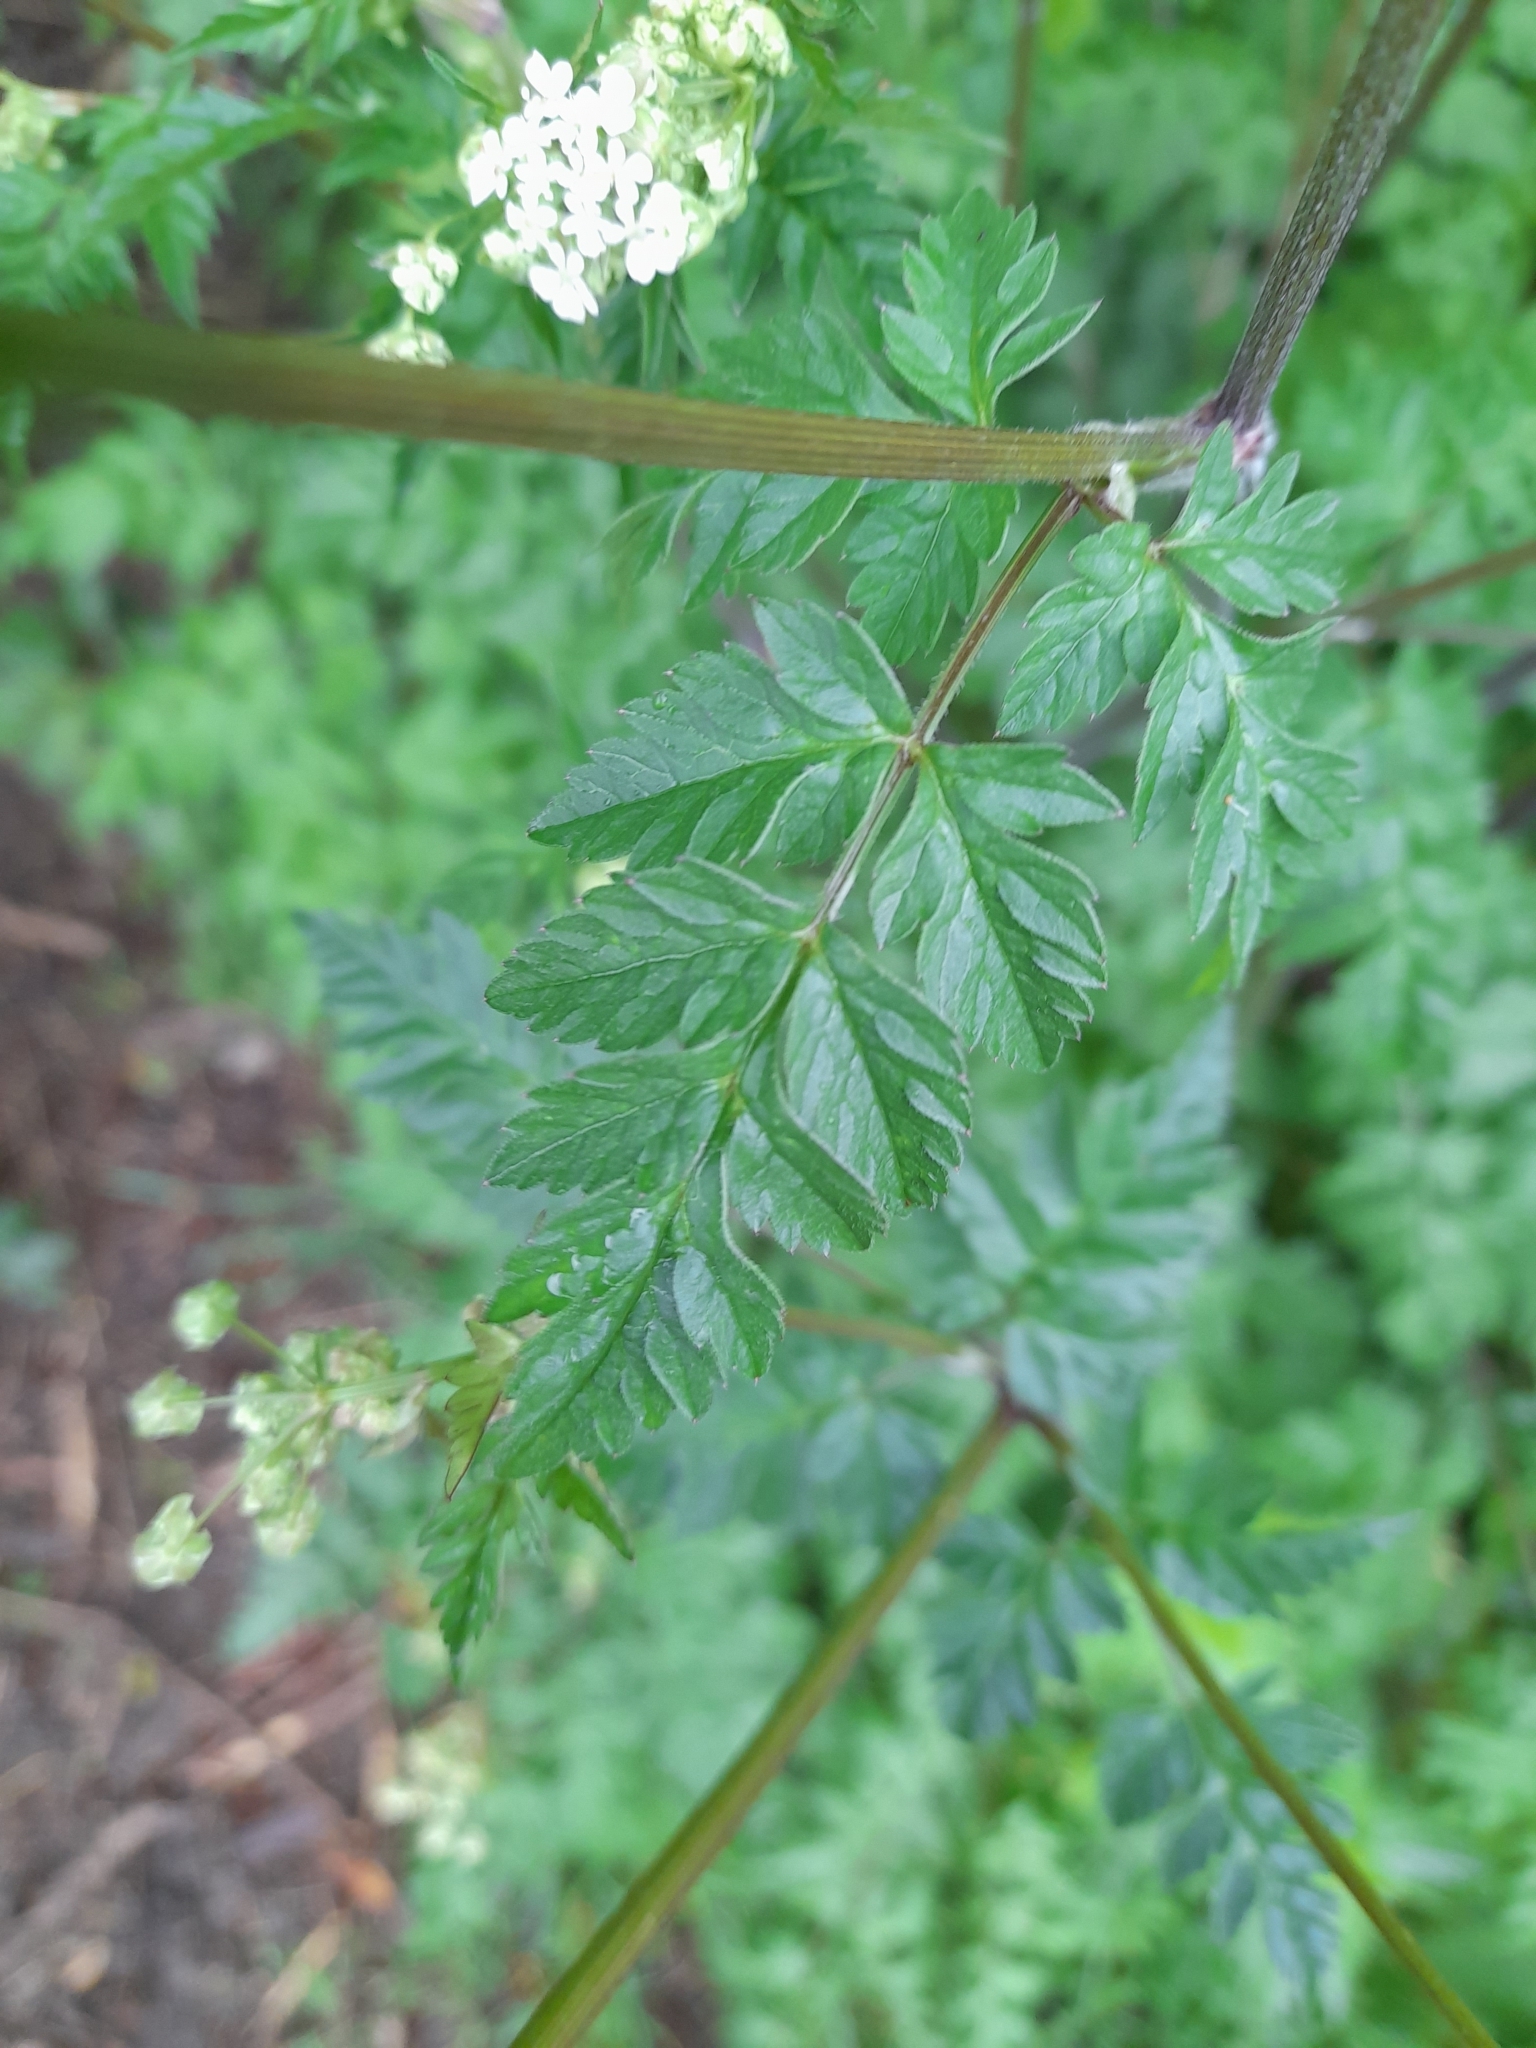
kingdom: Plantae
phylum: Tracheophyta
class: Magnoliopsida
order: Apiales
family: Apiaceae
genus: Anthriscus
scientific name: Anthriscus sylvestris
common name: Cow parsley
